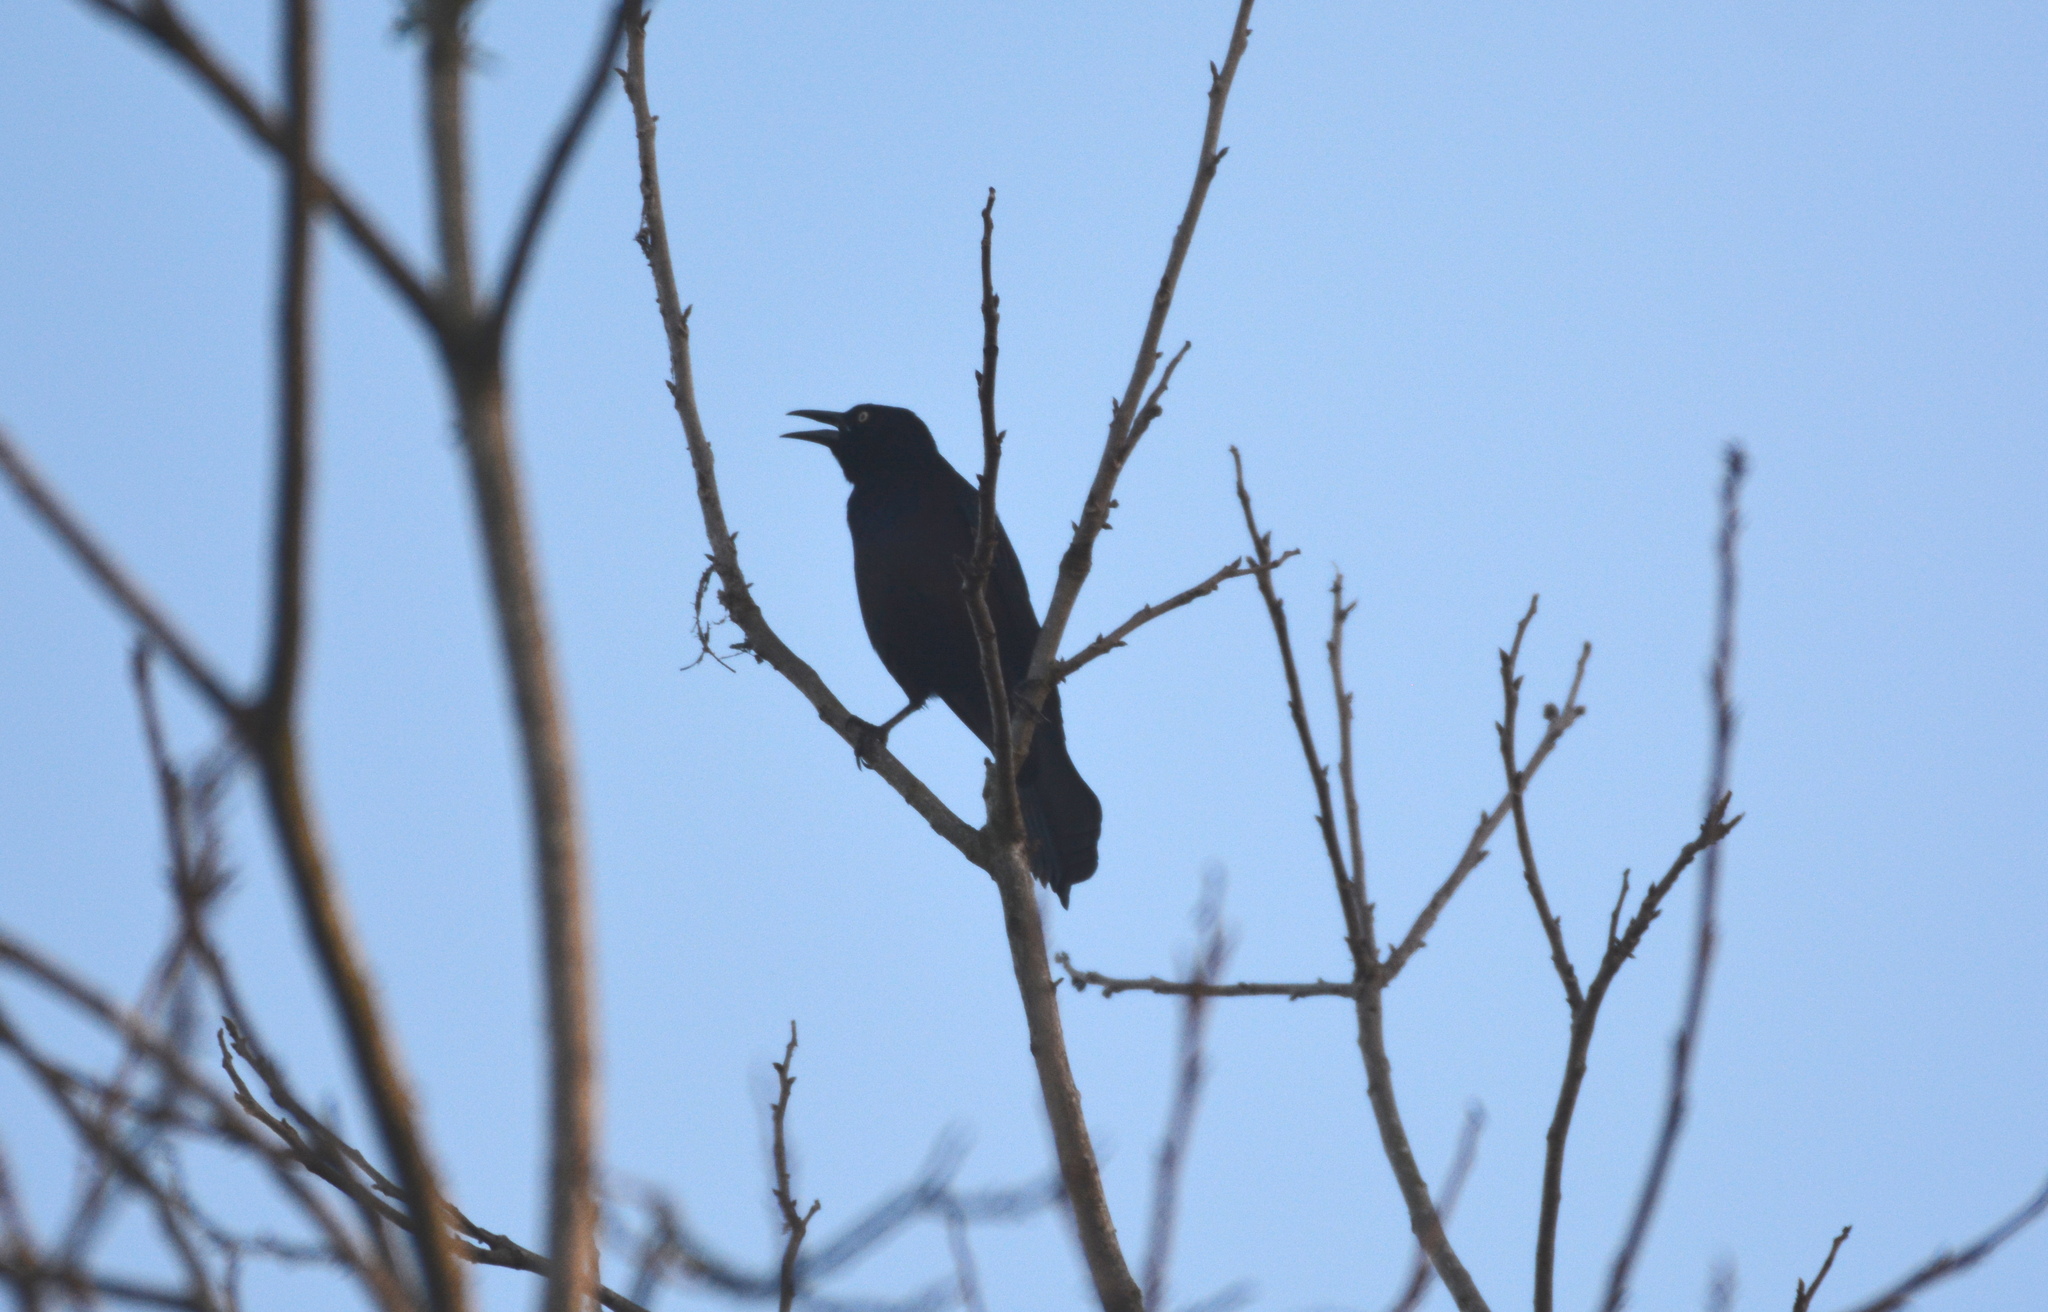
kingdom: Animalia
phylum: Chordata
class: Aves
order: Passeriformes
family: Icteridae
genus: Quiscalus
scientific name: Quiscalus quiscula
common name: Common grackle
